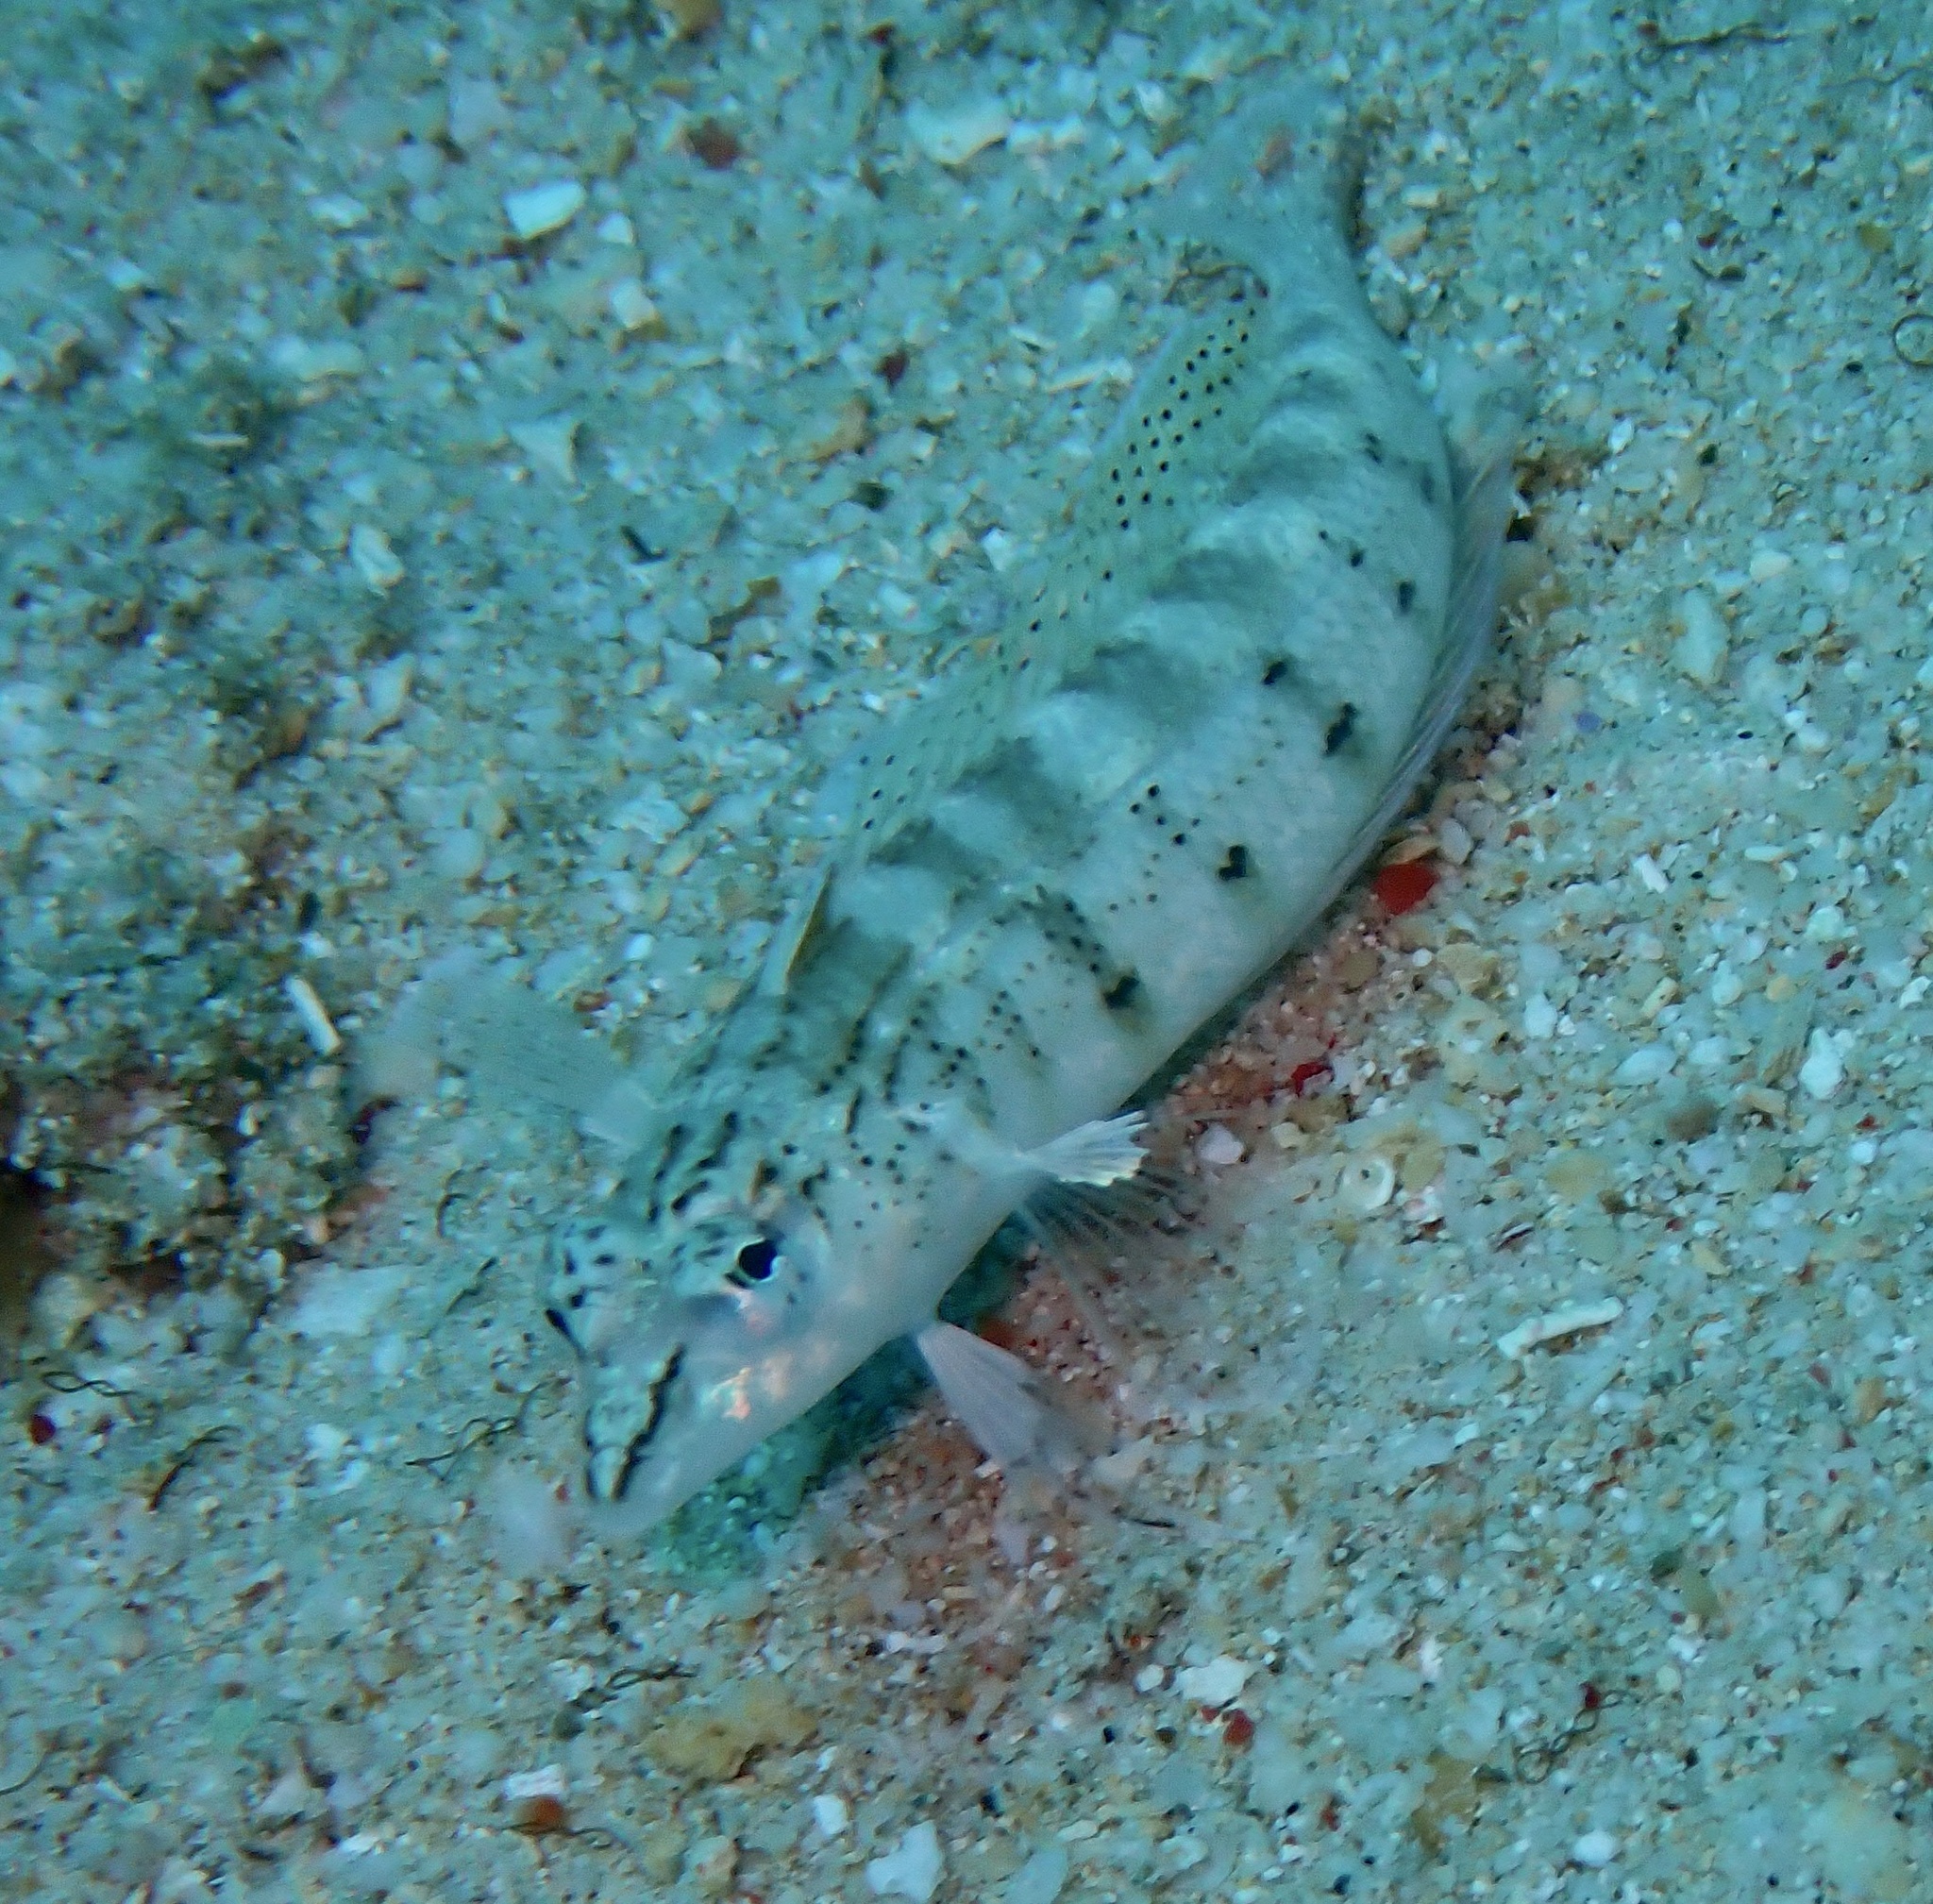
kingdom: Animalia
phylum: Chordata
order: Perciformes
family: Pinguipedidae
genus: Parapercis
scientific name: Parapercis lineopunctata
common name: Nosestripe sandperch
